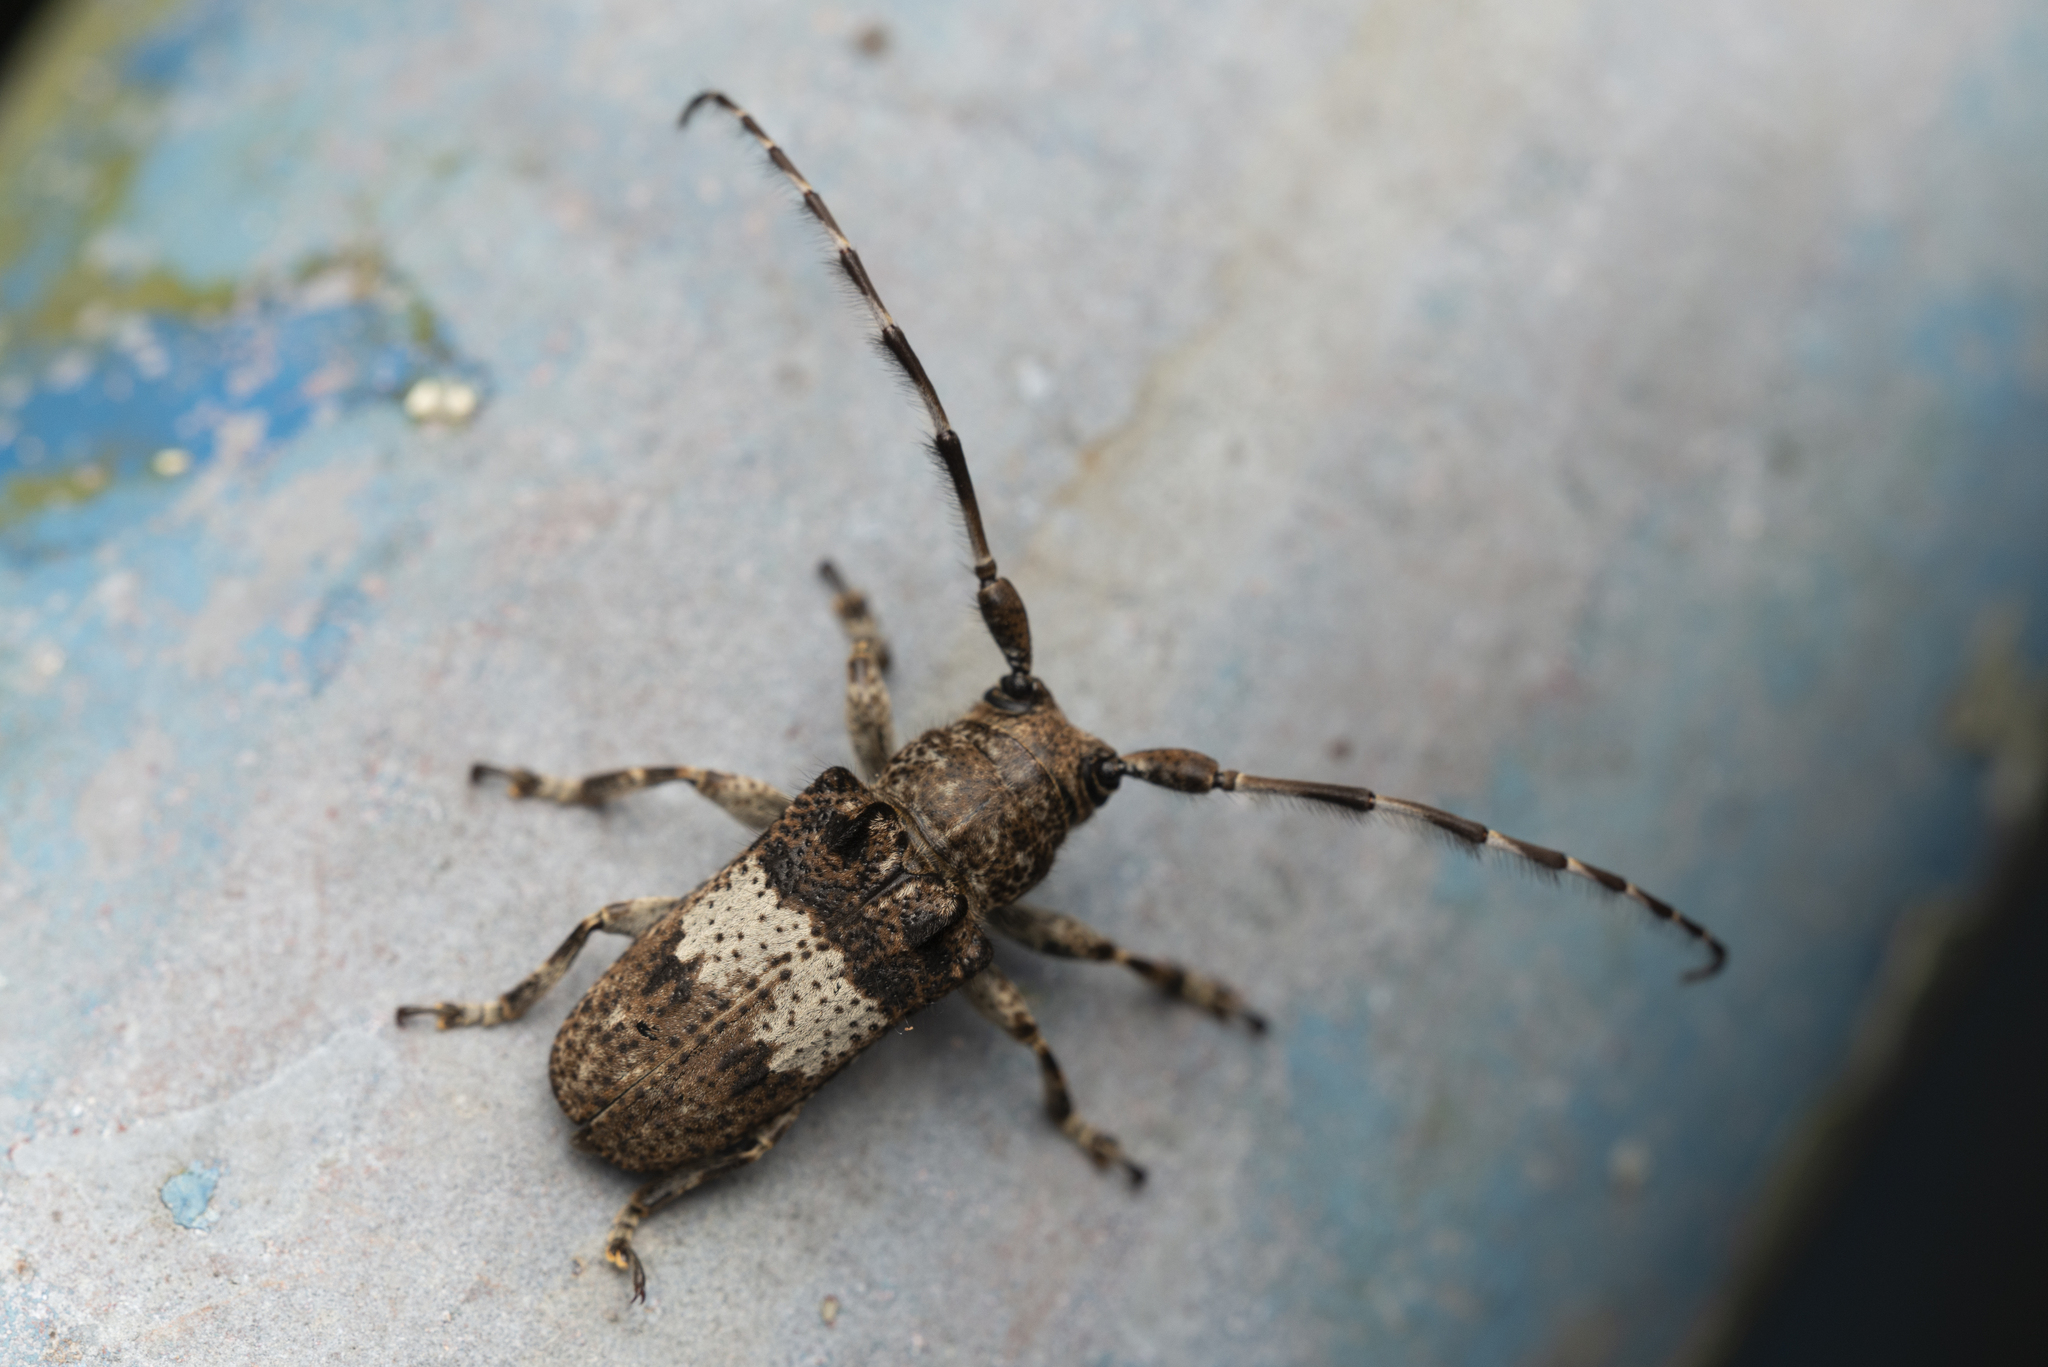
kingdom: Animalia
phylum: Arthropoda
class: Insecta
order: Coleoptera
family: Cerambycidae
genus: Gibbomesosella
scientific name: Gibbomesosella nodulosa
